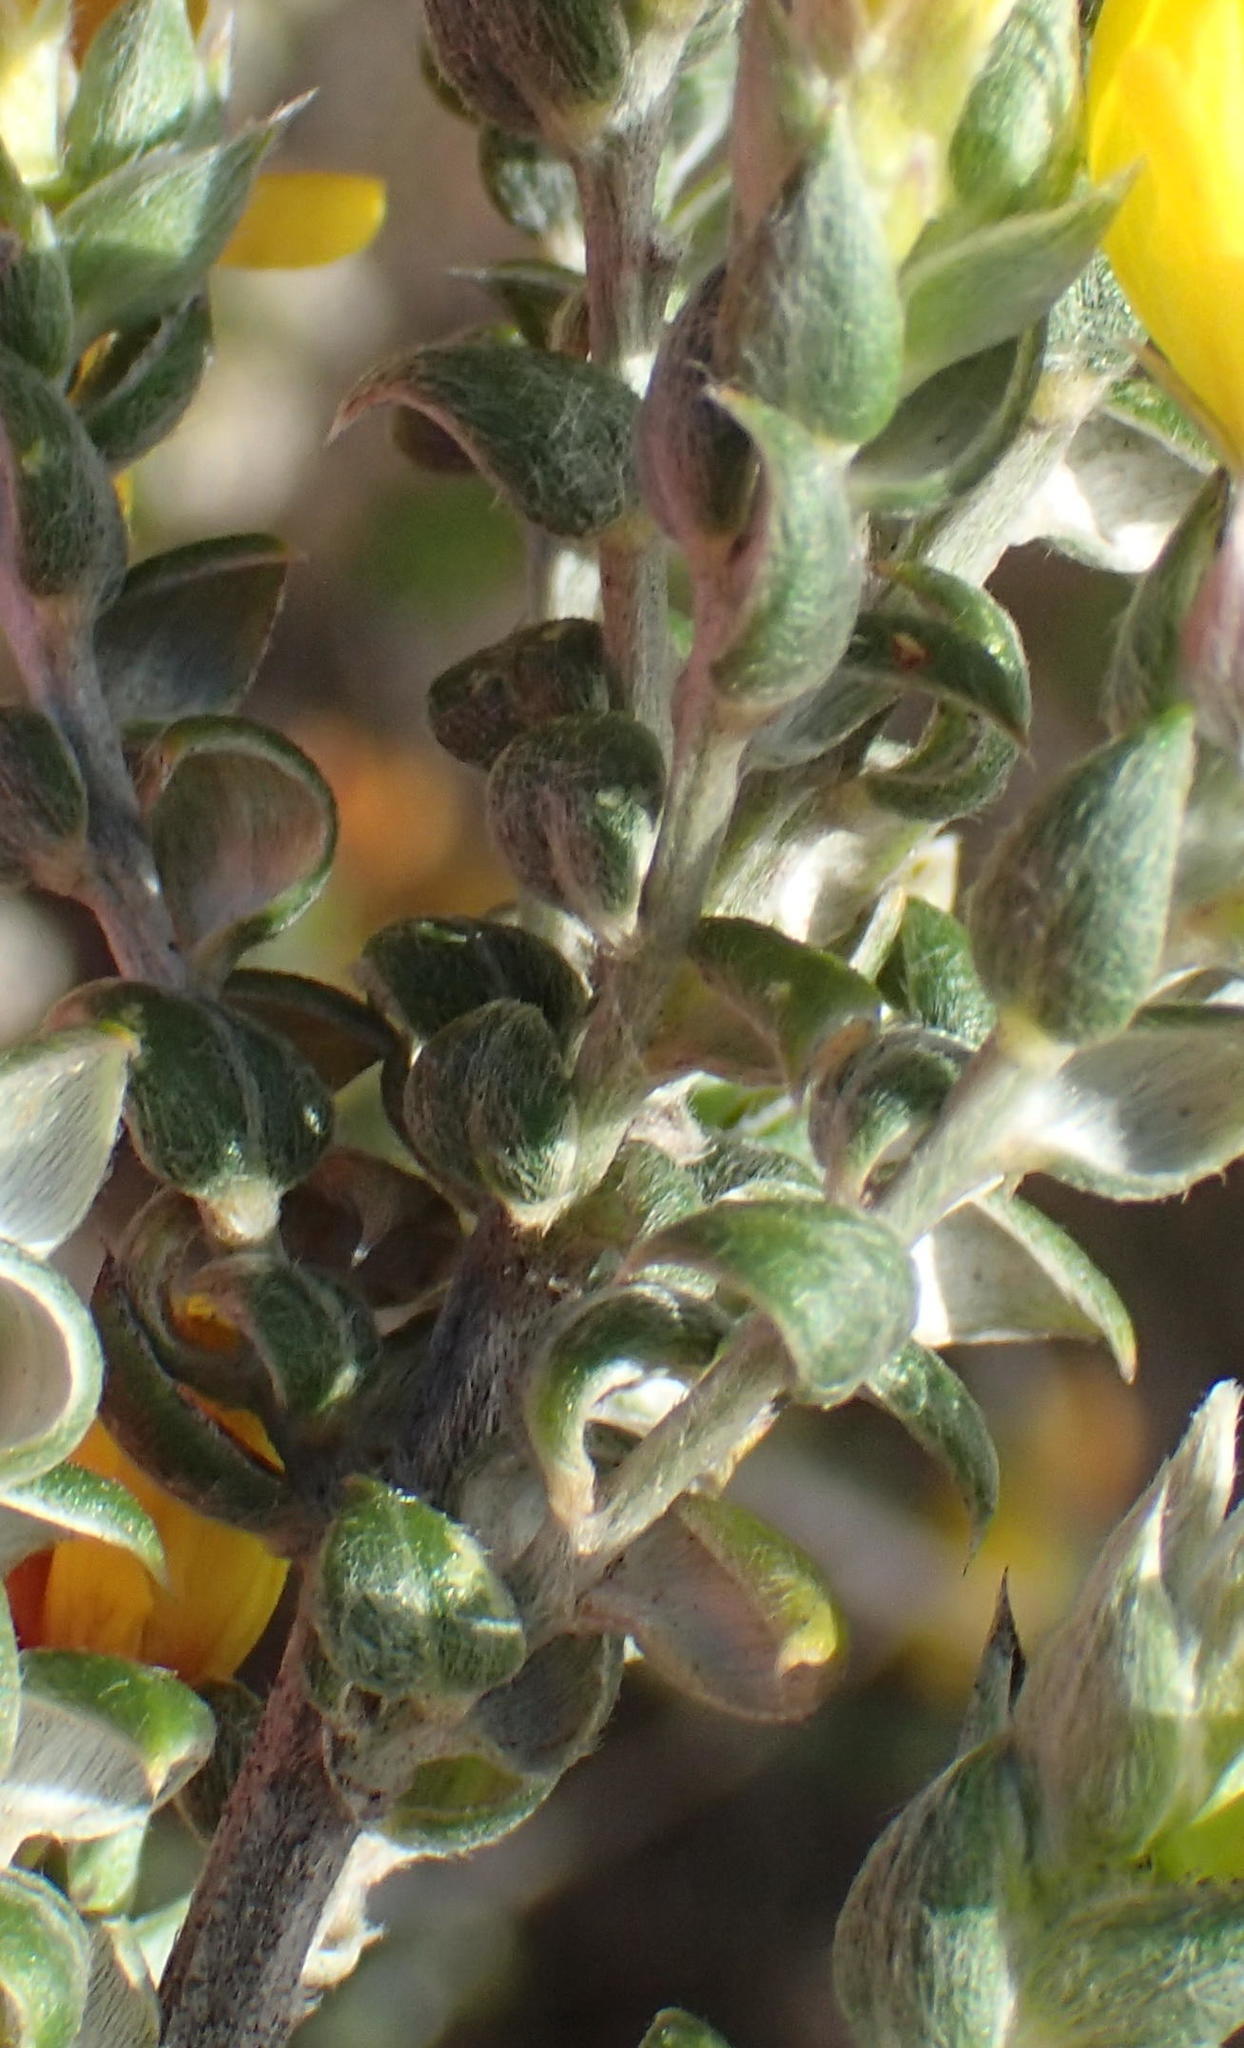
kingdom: Plantae
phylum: Tracheophyta
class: Magnoliopsida
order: Fabales
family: Fabaceae
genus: Amphithalea
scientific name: Amphithalea flava
